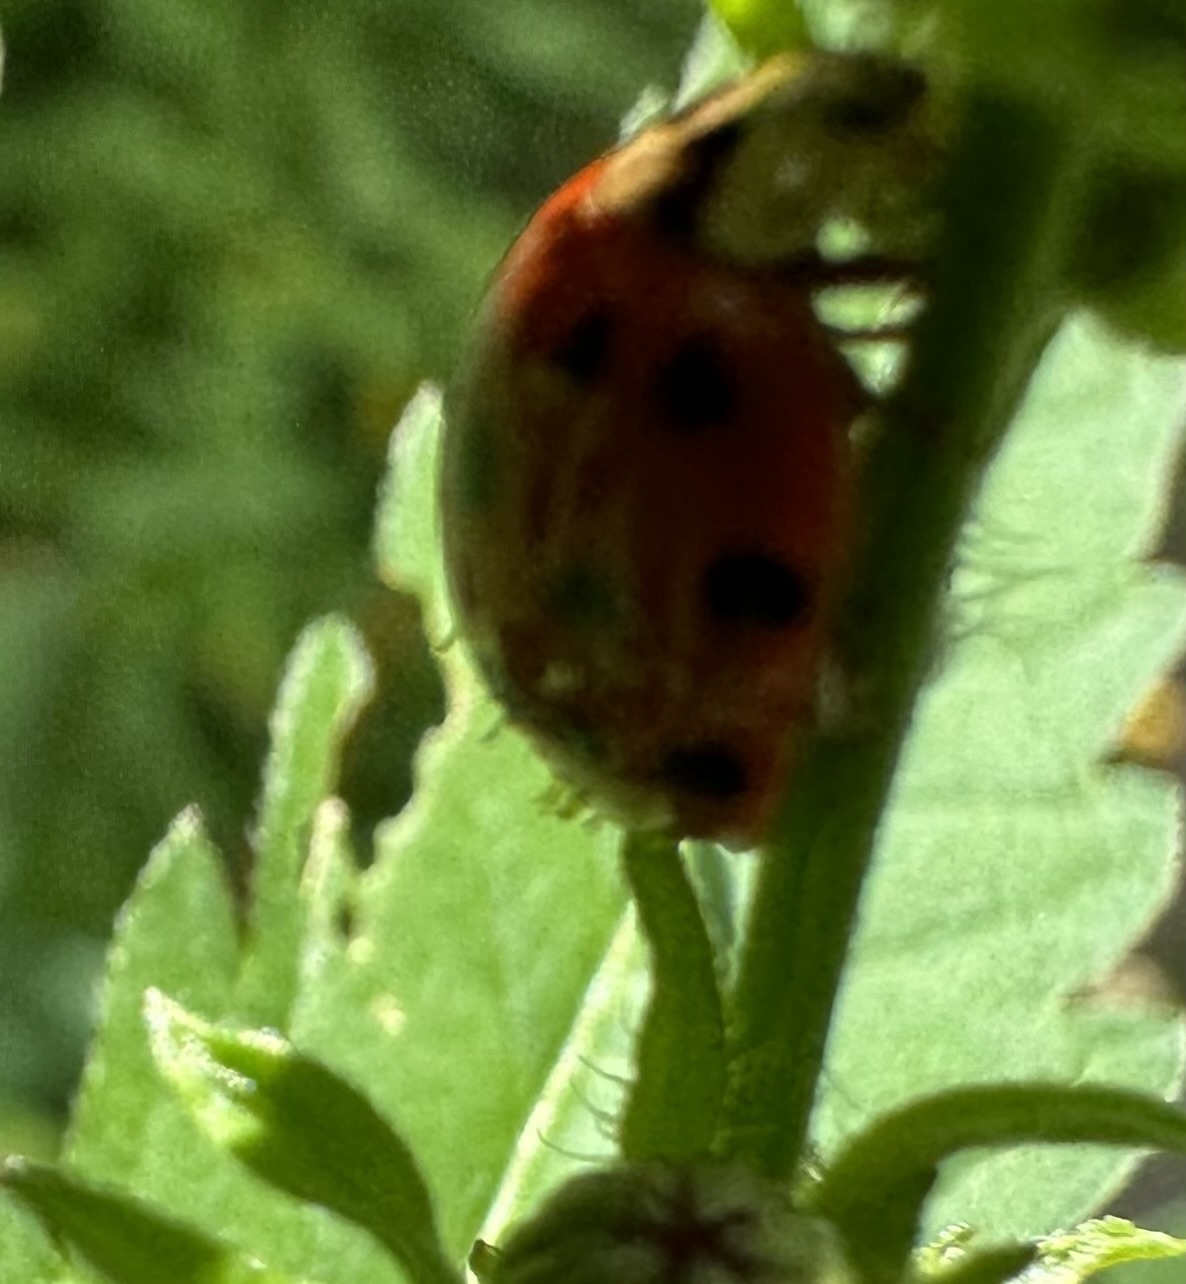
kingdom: Fungi
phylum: Ascomycota
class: Laboulbeniomycetes
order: Laboulbeniales
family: Laboulbeniaceae
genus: Hesperomyces
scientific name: Hesperomyces harmoniae
